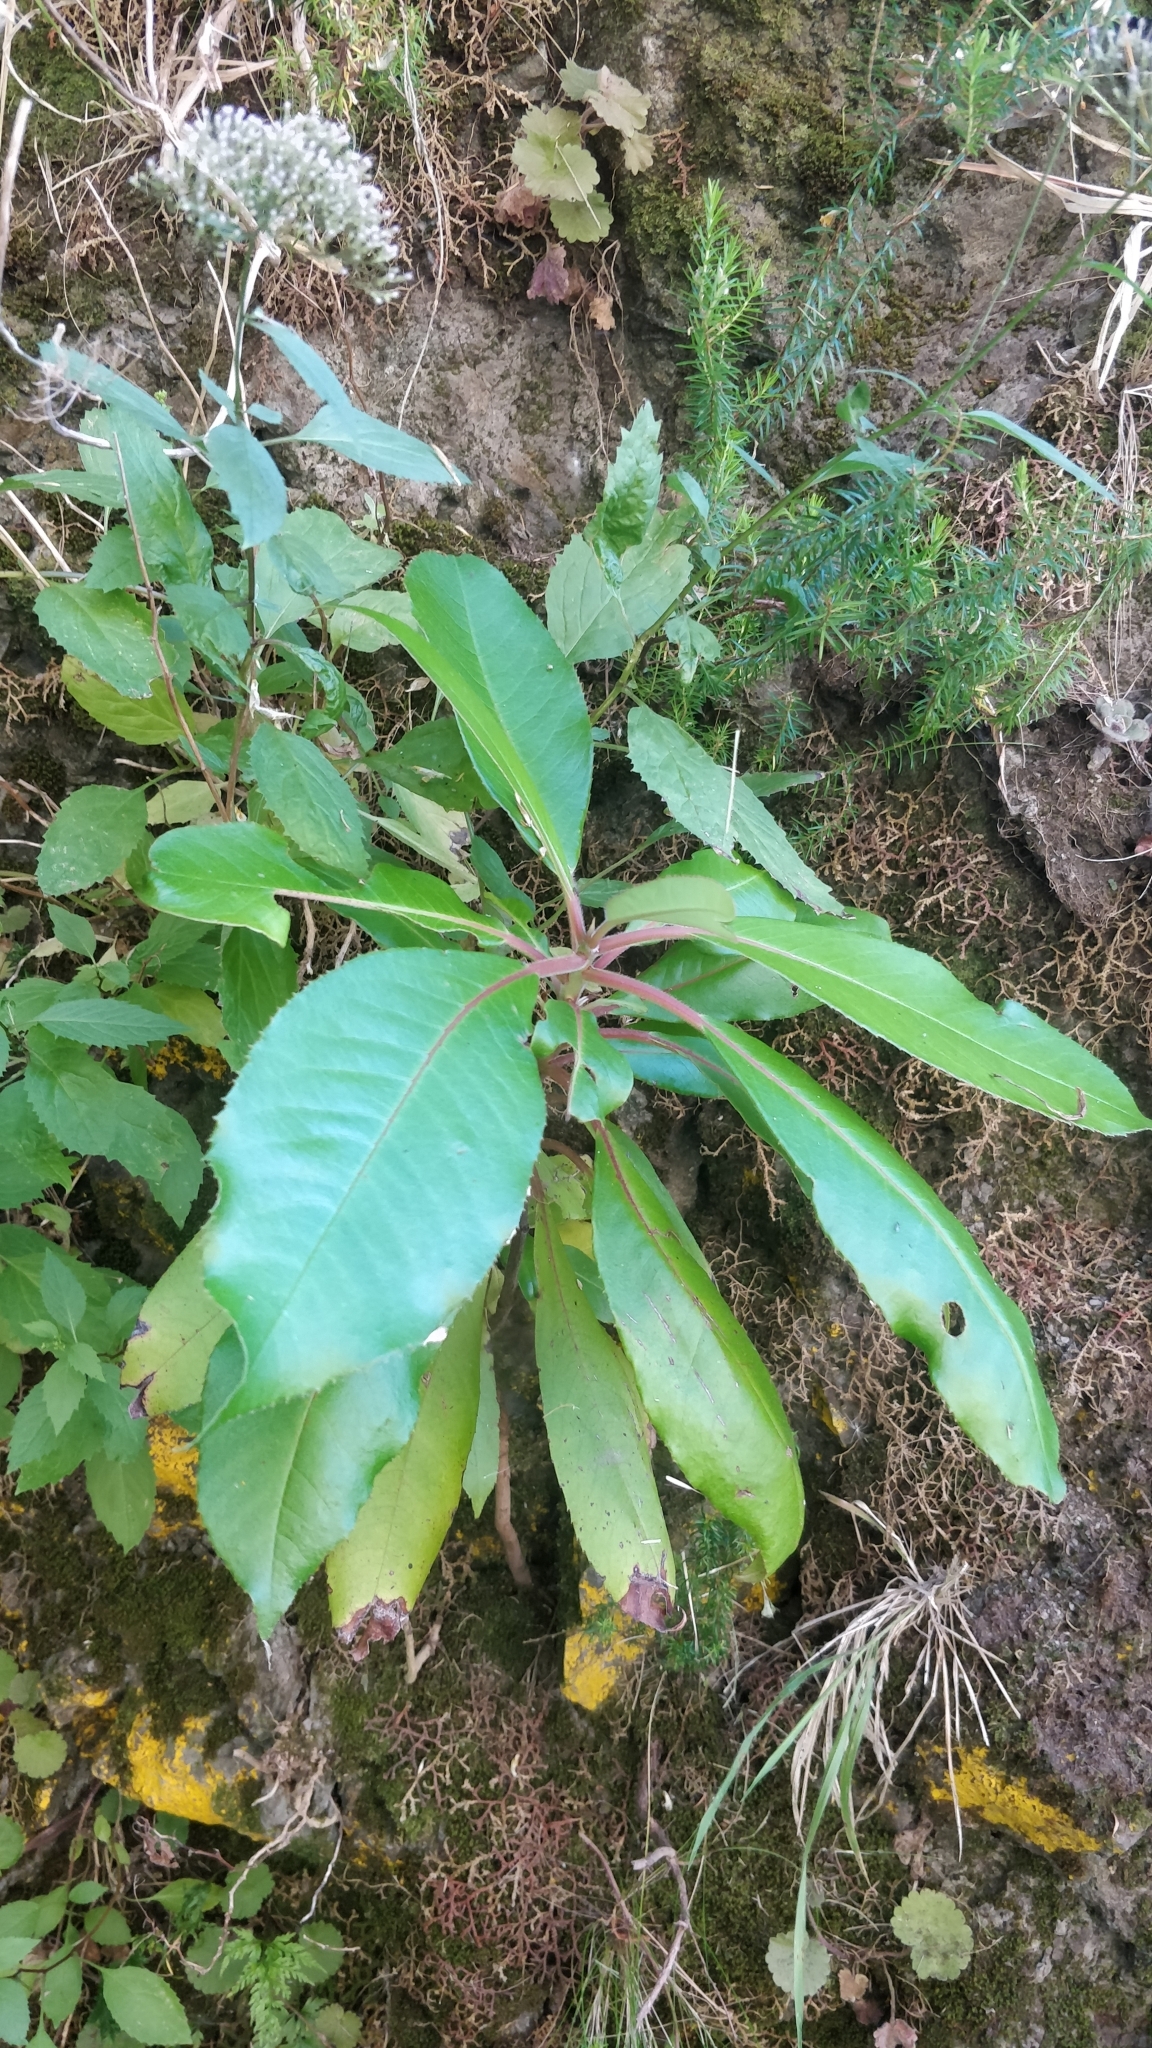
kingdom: Plantae
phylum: Tracheophyta
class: Magnoliopsida
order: Ericales
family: Clethraceae
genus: Clethra
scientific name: Clethra arborea
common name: Lily-of-the-valley-tree
